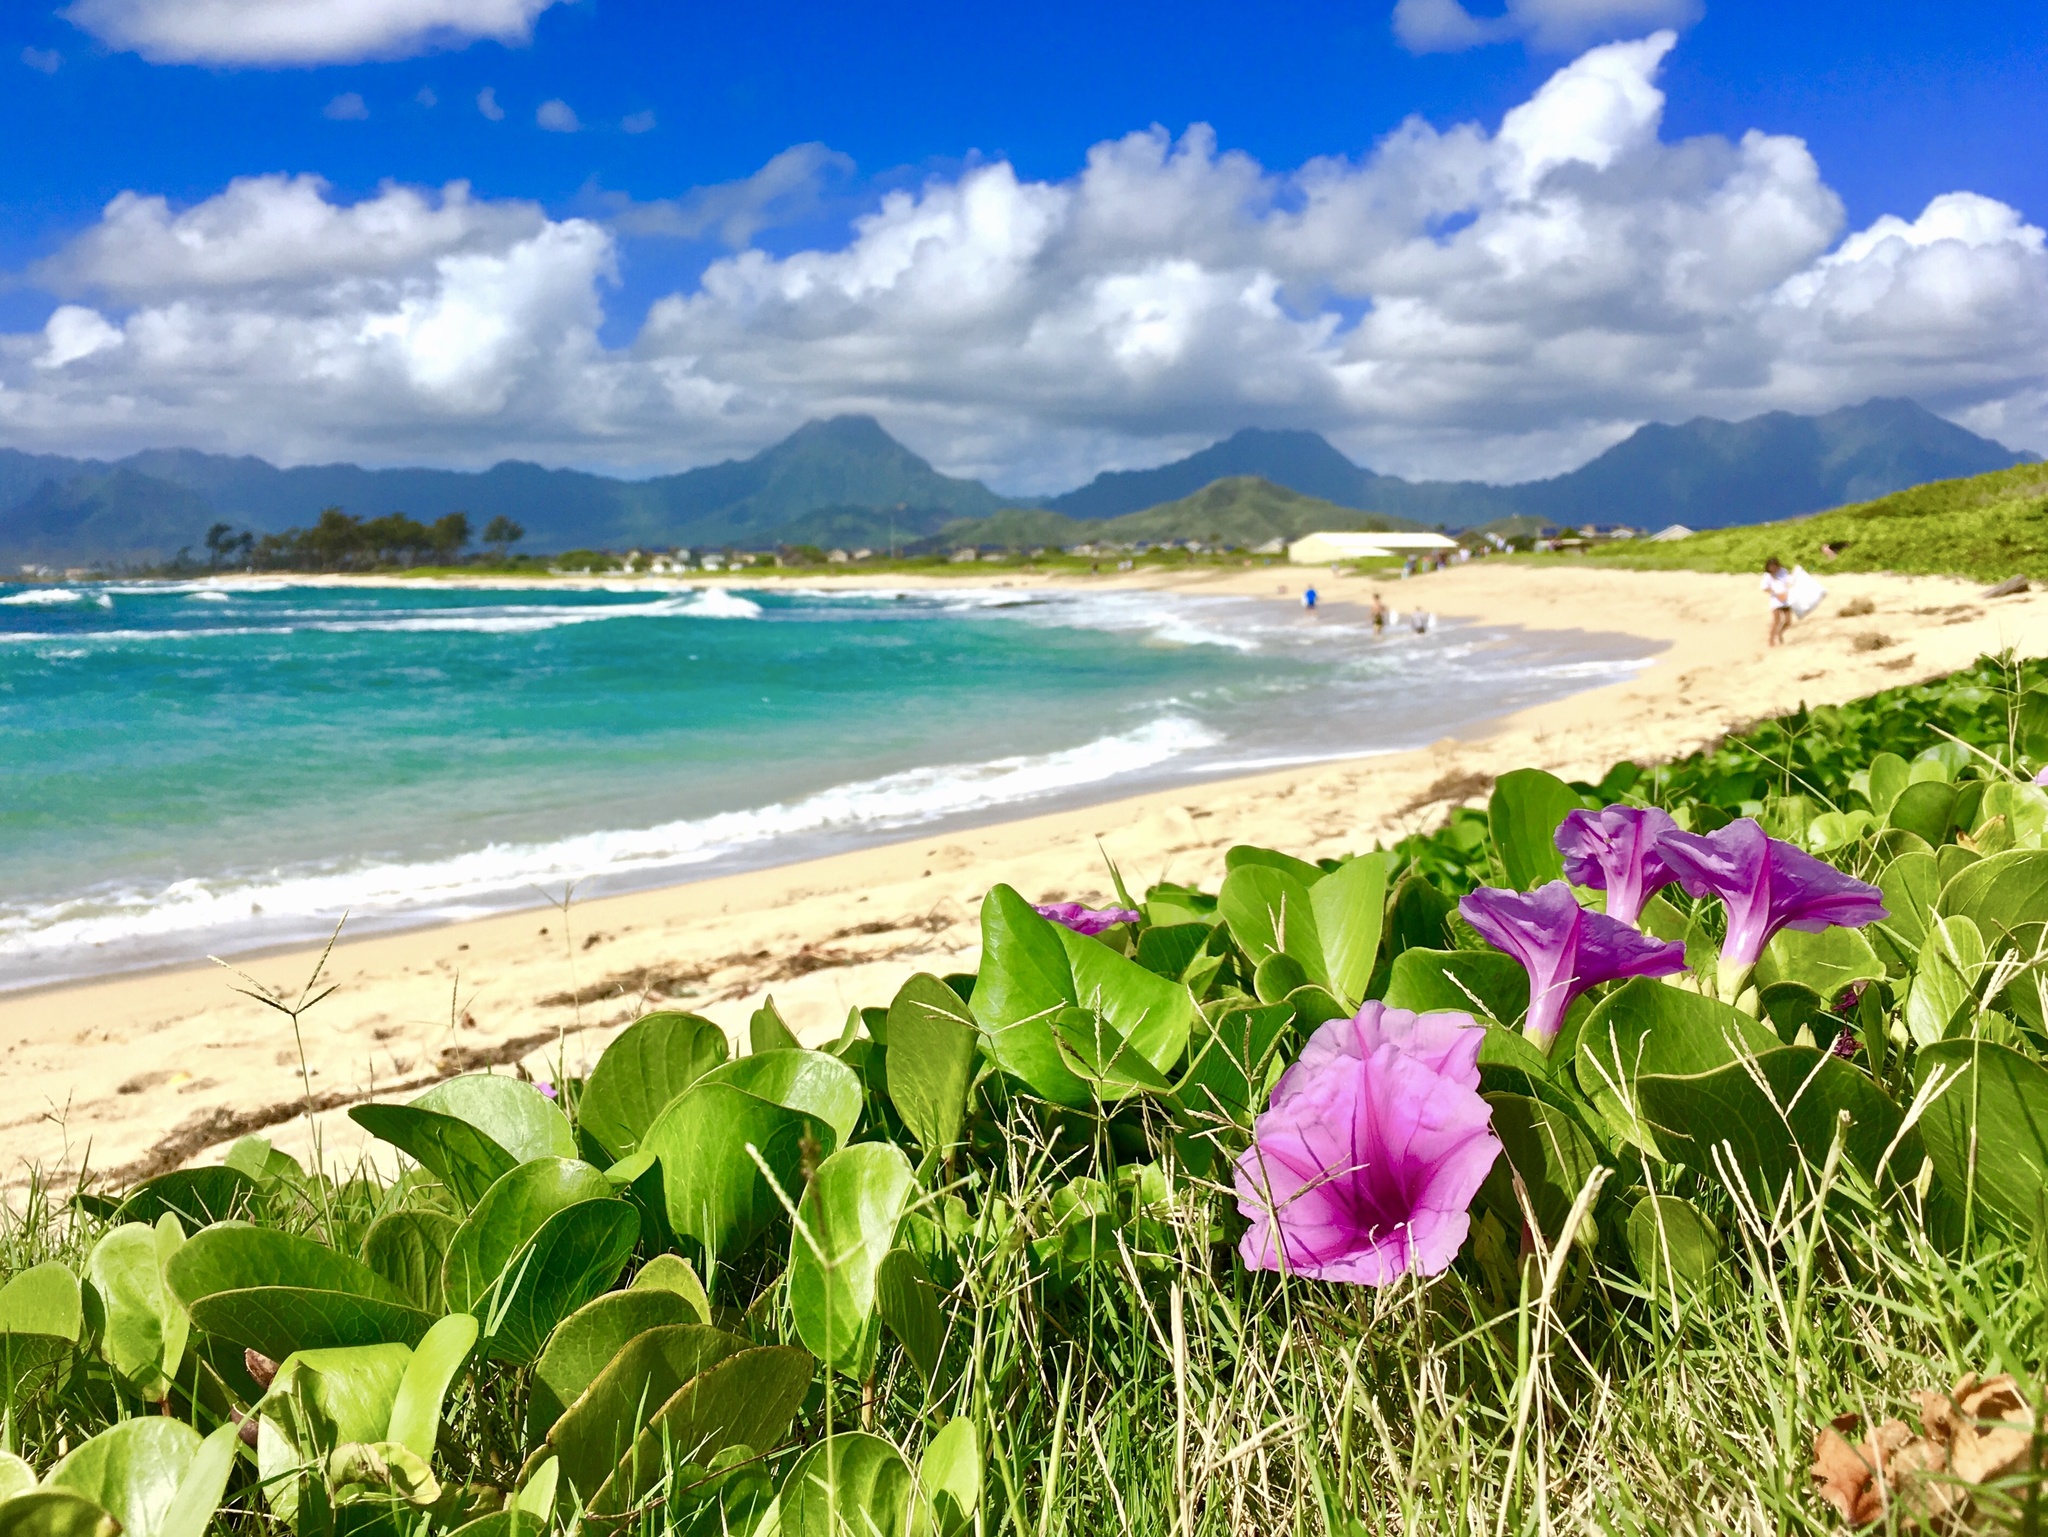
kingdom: Plantae
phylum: Tracheophyta
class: Magnoliopsida
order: Solanales
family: Convolvulaceae
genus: Ipomoea
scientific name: Ipomoea pes-caprae
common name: Beach morning glory
